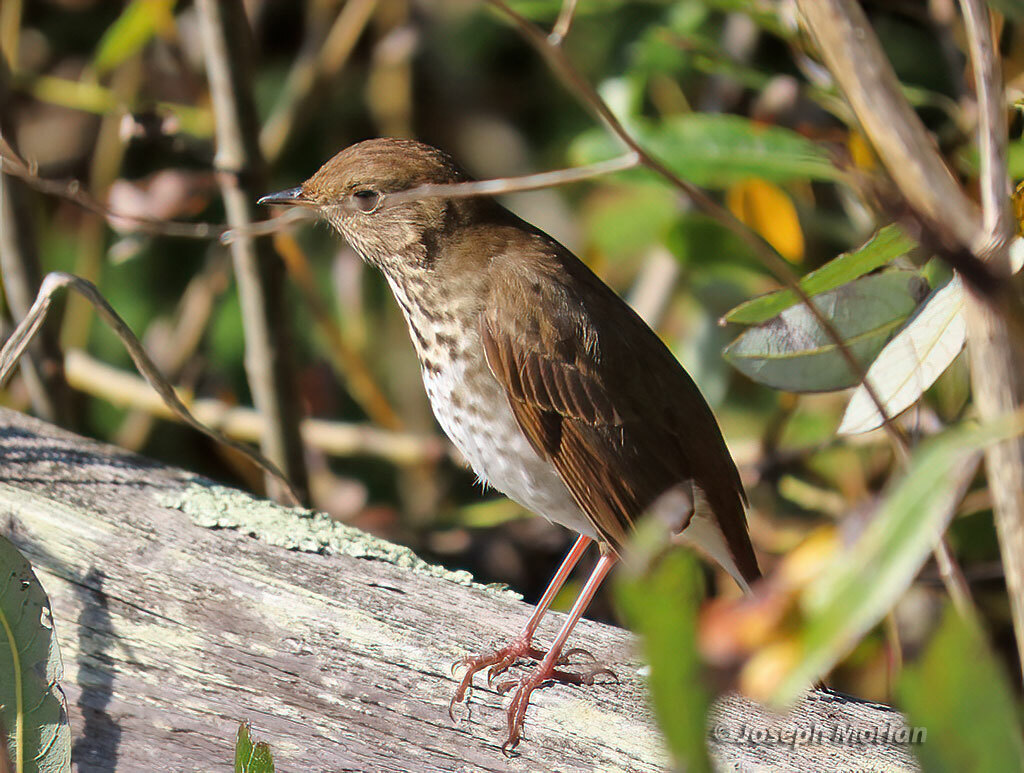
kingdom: Animalia
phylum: Chordata
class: Aves
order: Passeriformes
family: Turdidae
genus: Catharus
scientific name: Catharus guttatus
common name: Hermit thrush
